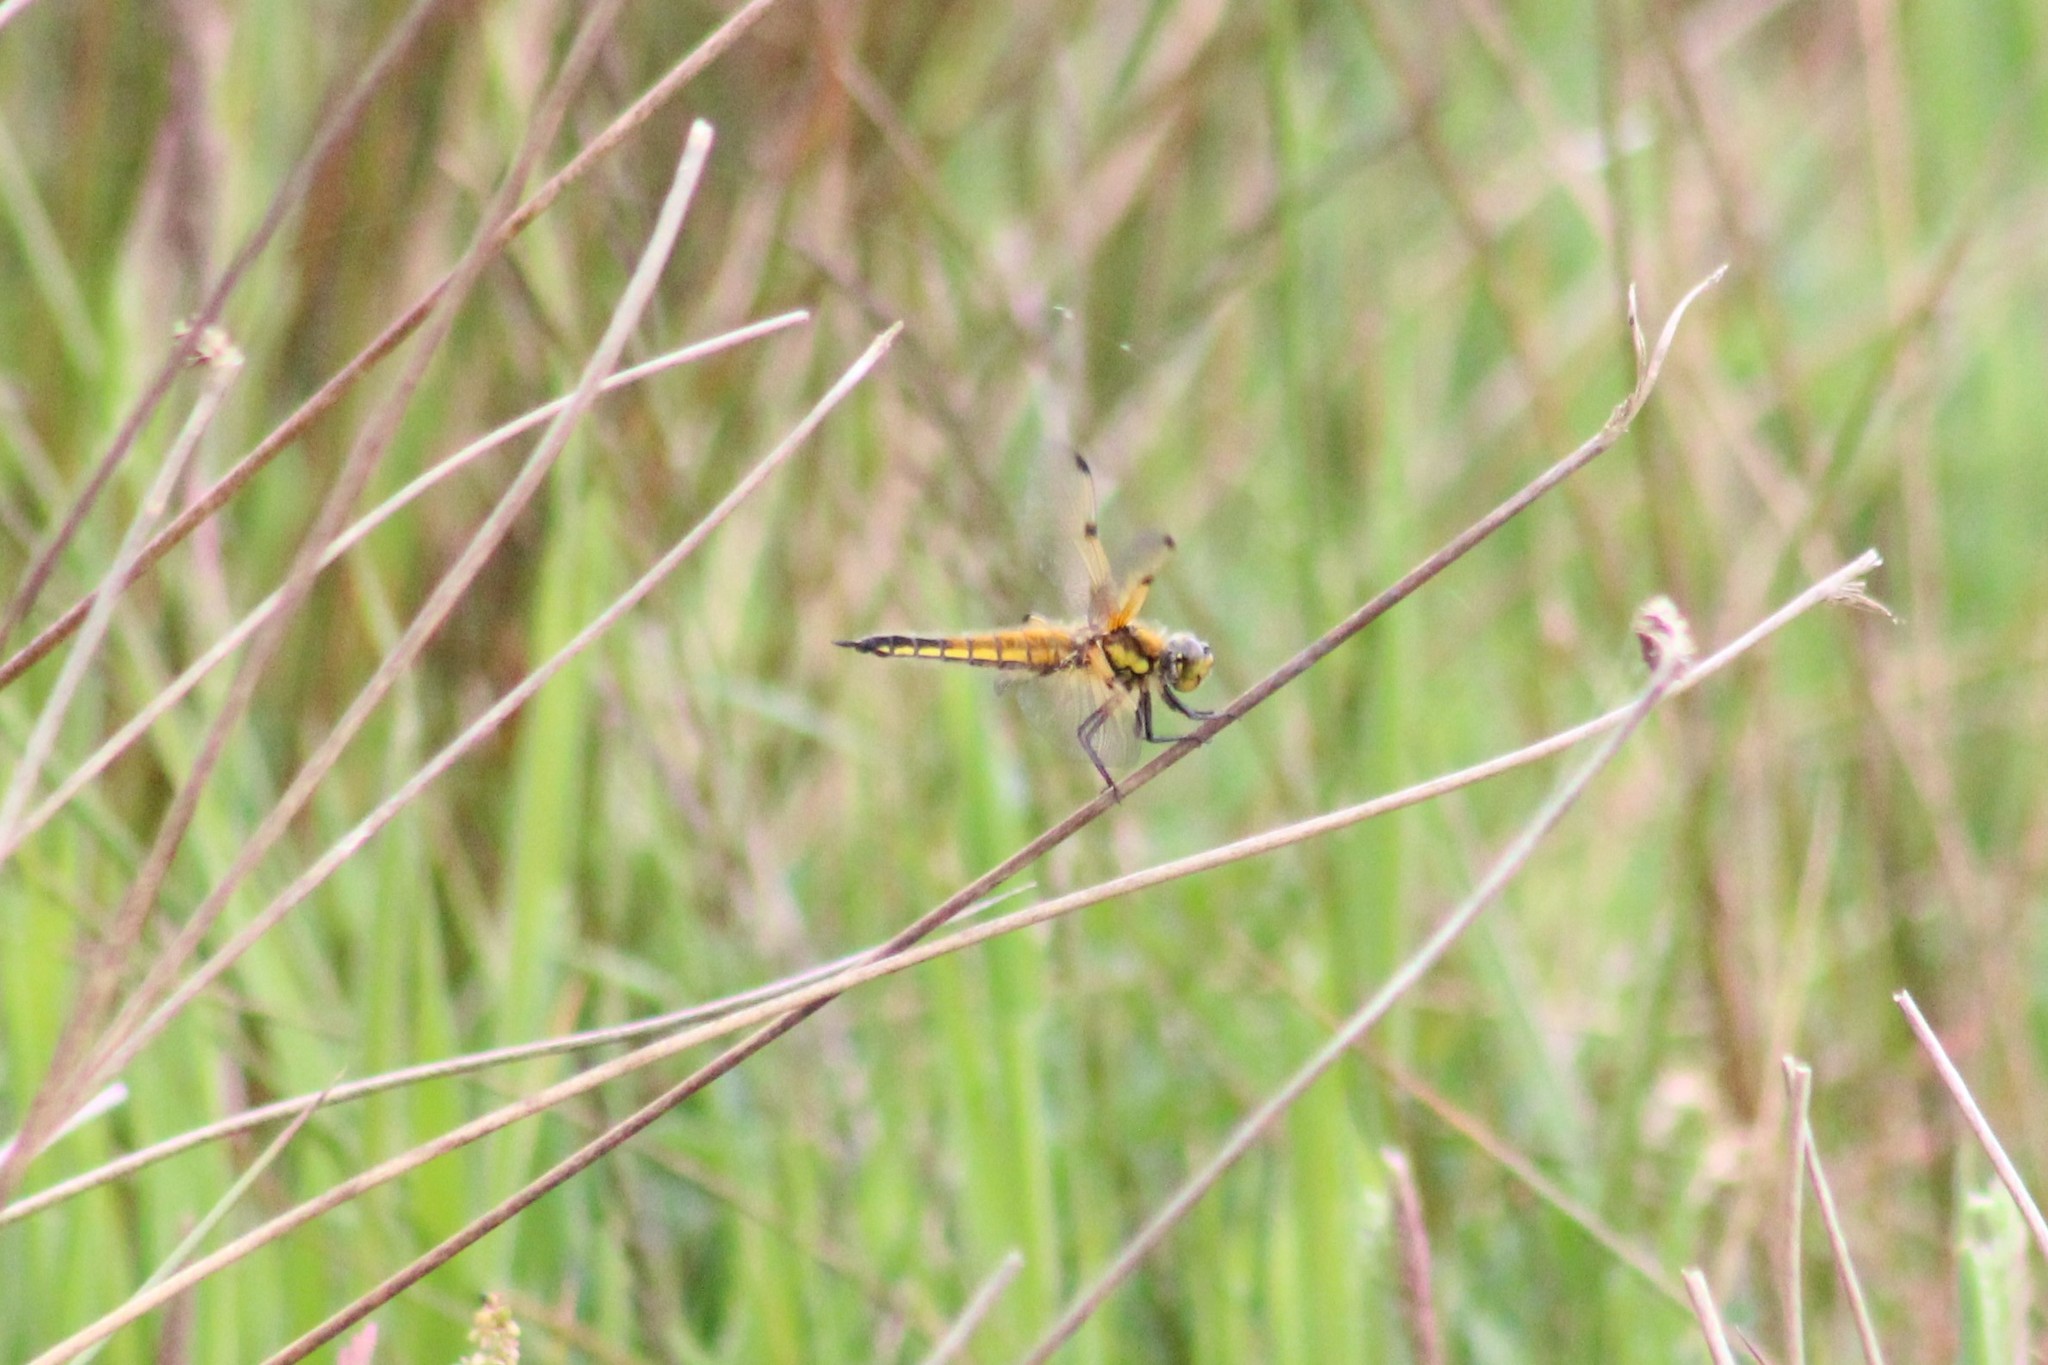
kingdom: Animalia
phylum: Arthropoda
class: Insecta
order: Odonata
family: Libellulidae
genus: Libellula
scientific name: Libellula quadrimaculata
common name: Four-spotted chaser
